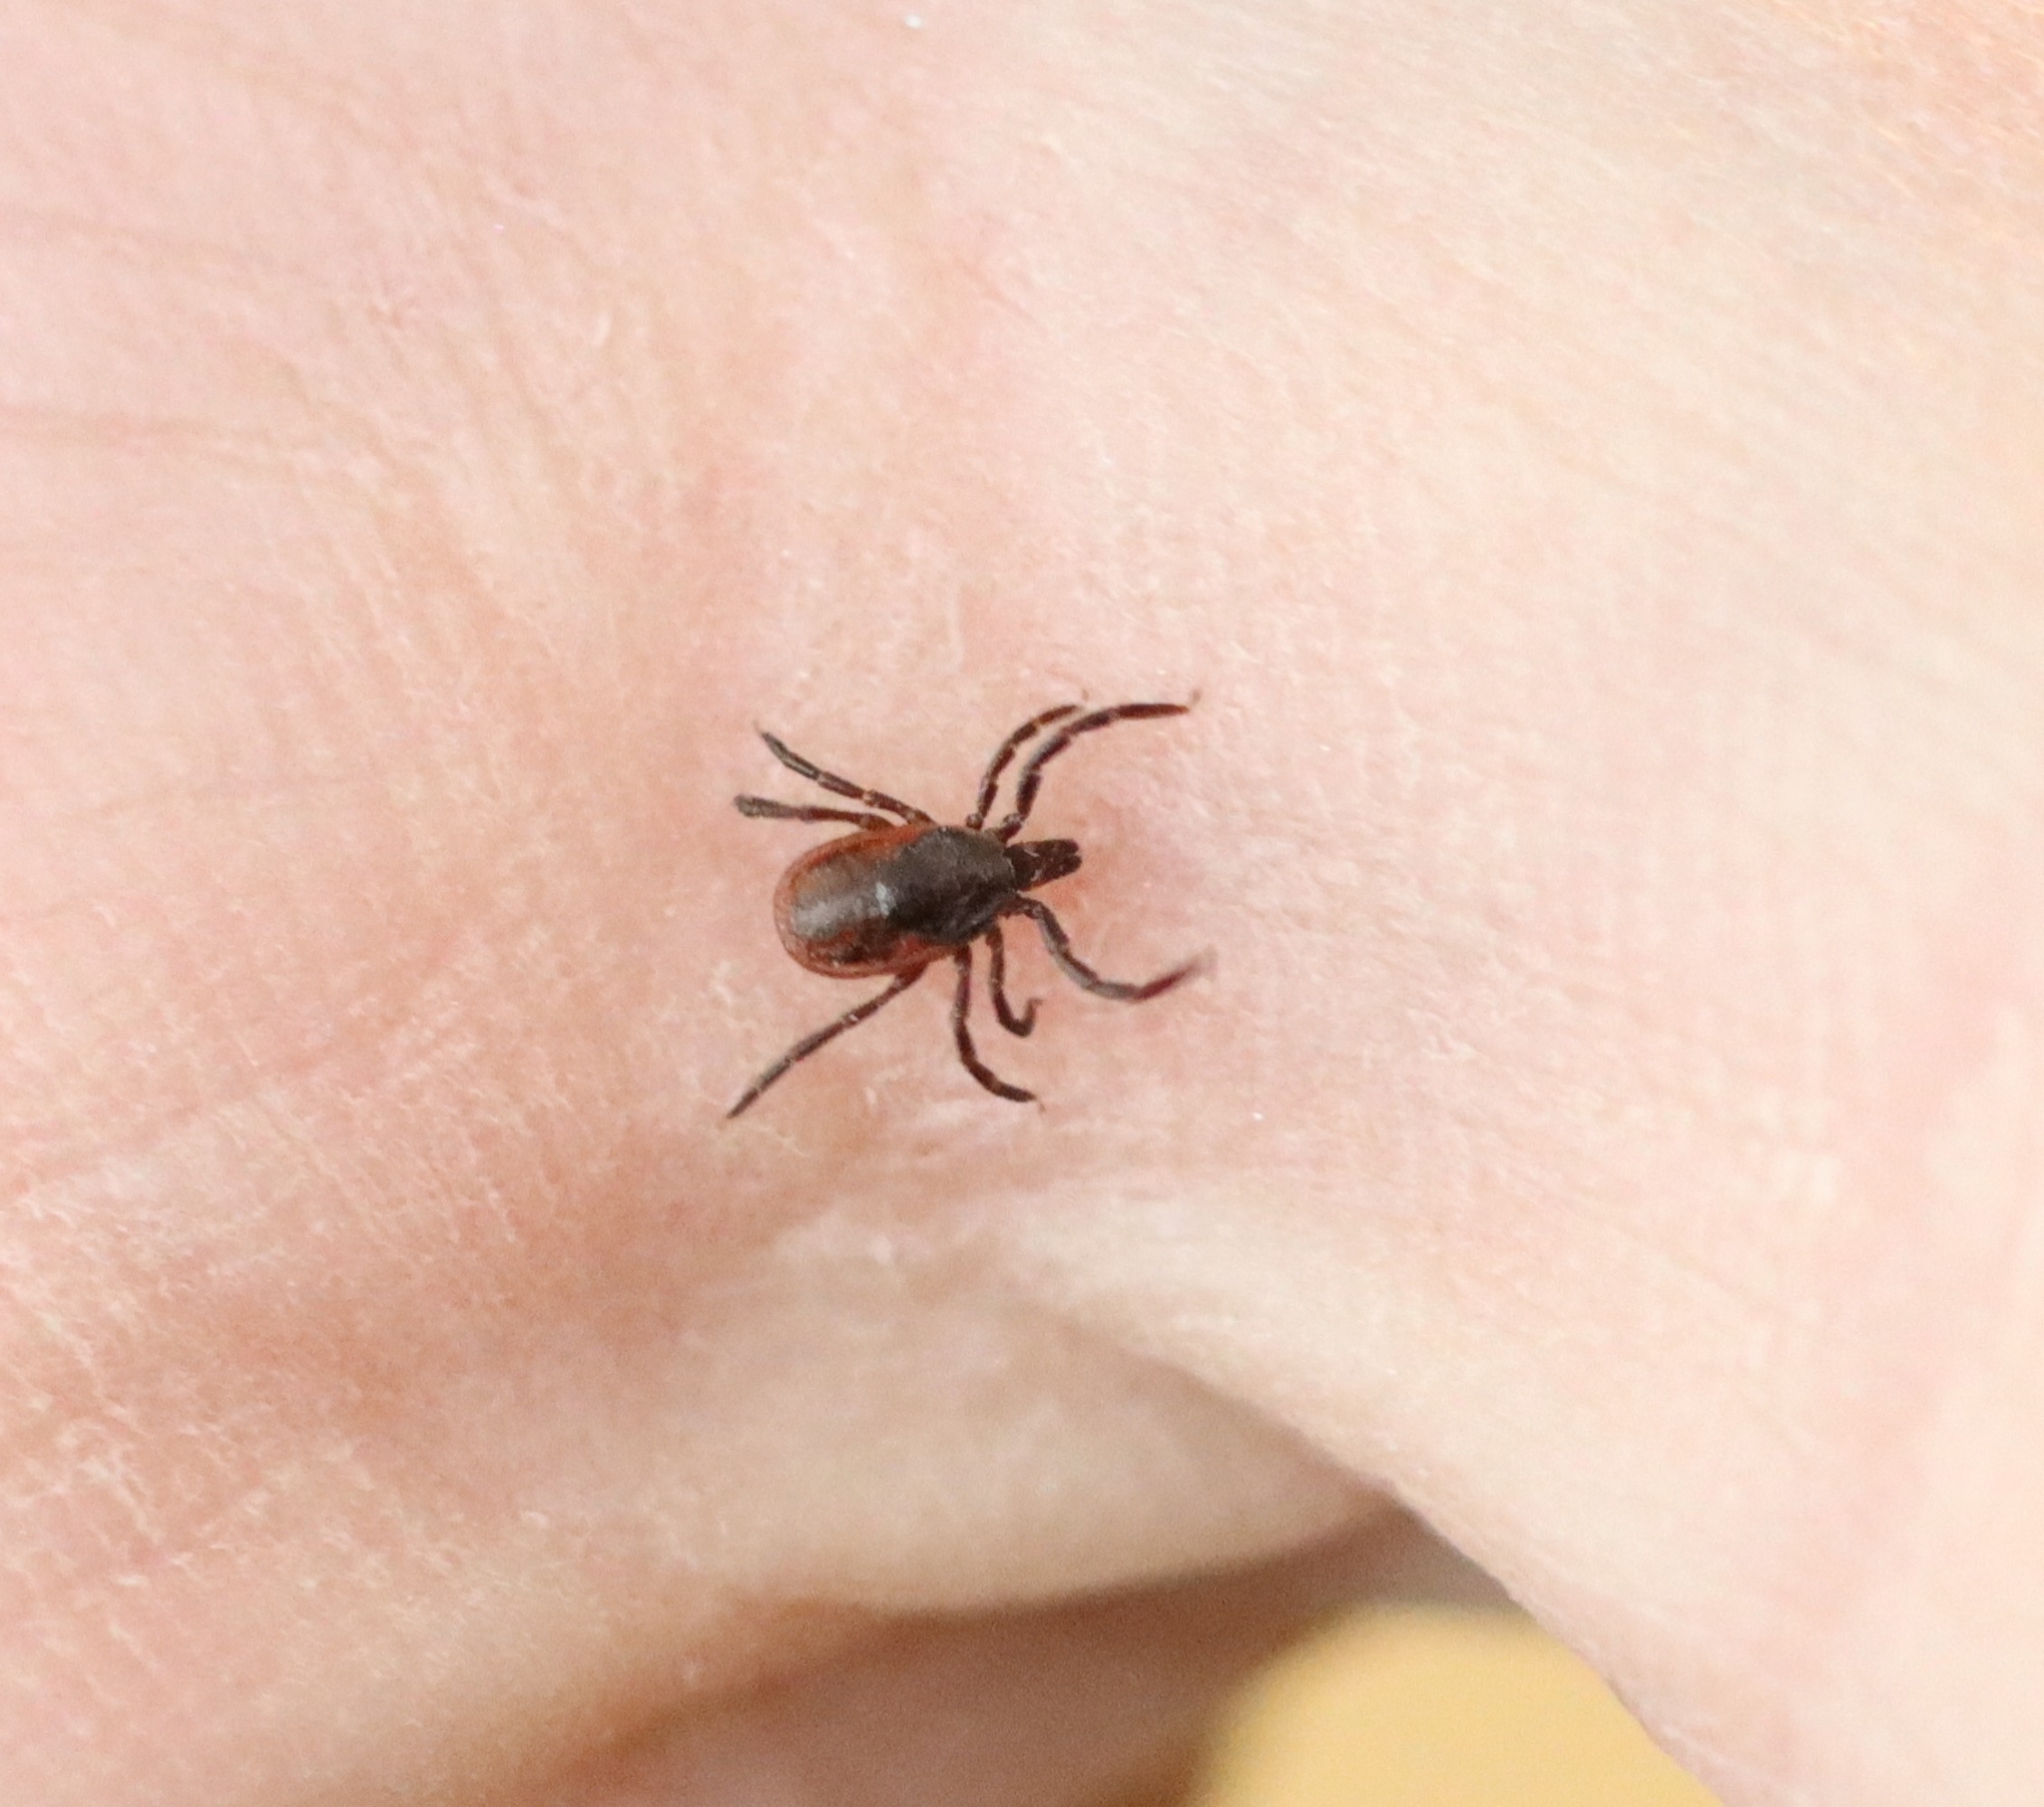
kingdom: Animalia
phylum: Arthropoda
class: Arachnida
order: Ixodida
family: Ixodidae
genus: Ixodes
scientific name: Ixodes pacificus
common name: California black-legged tick
